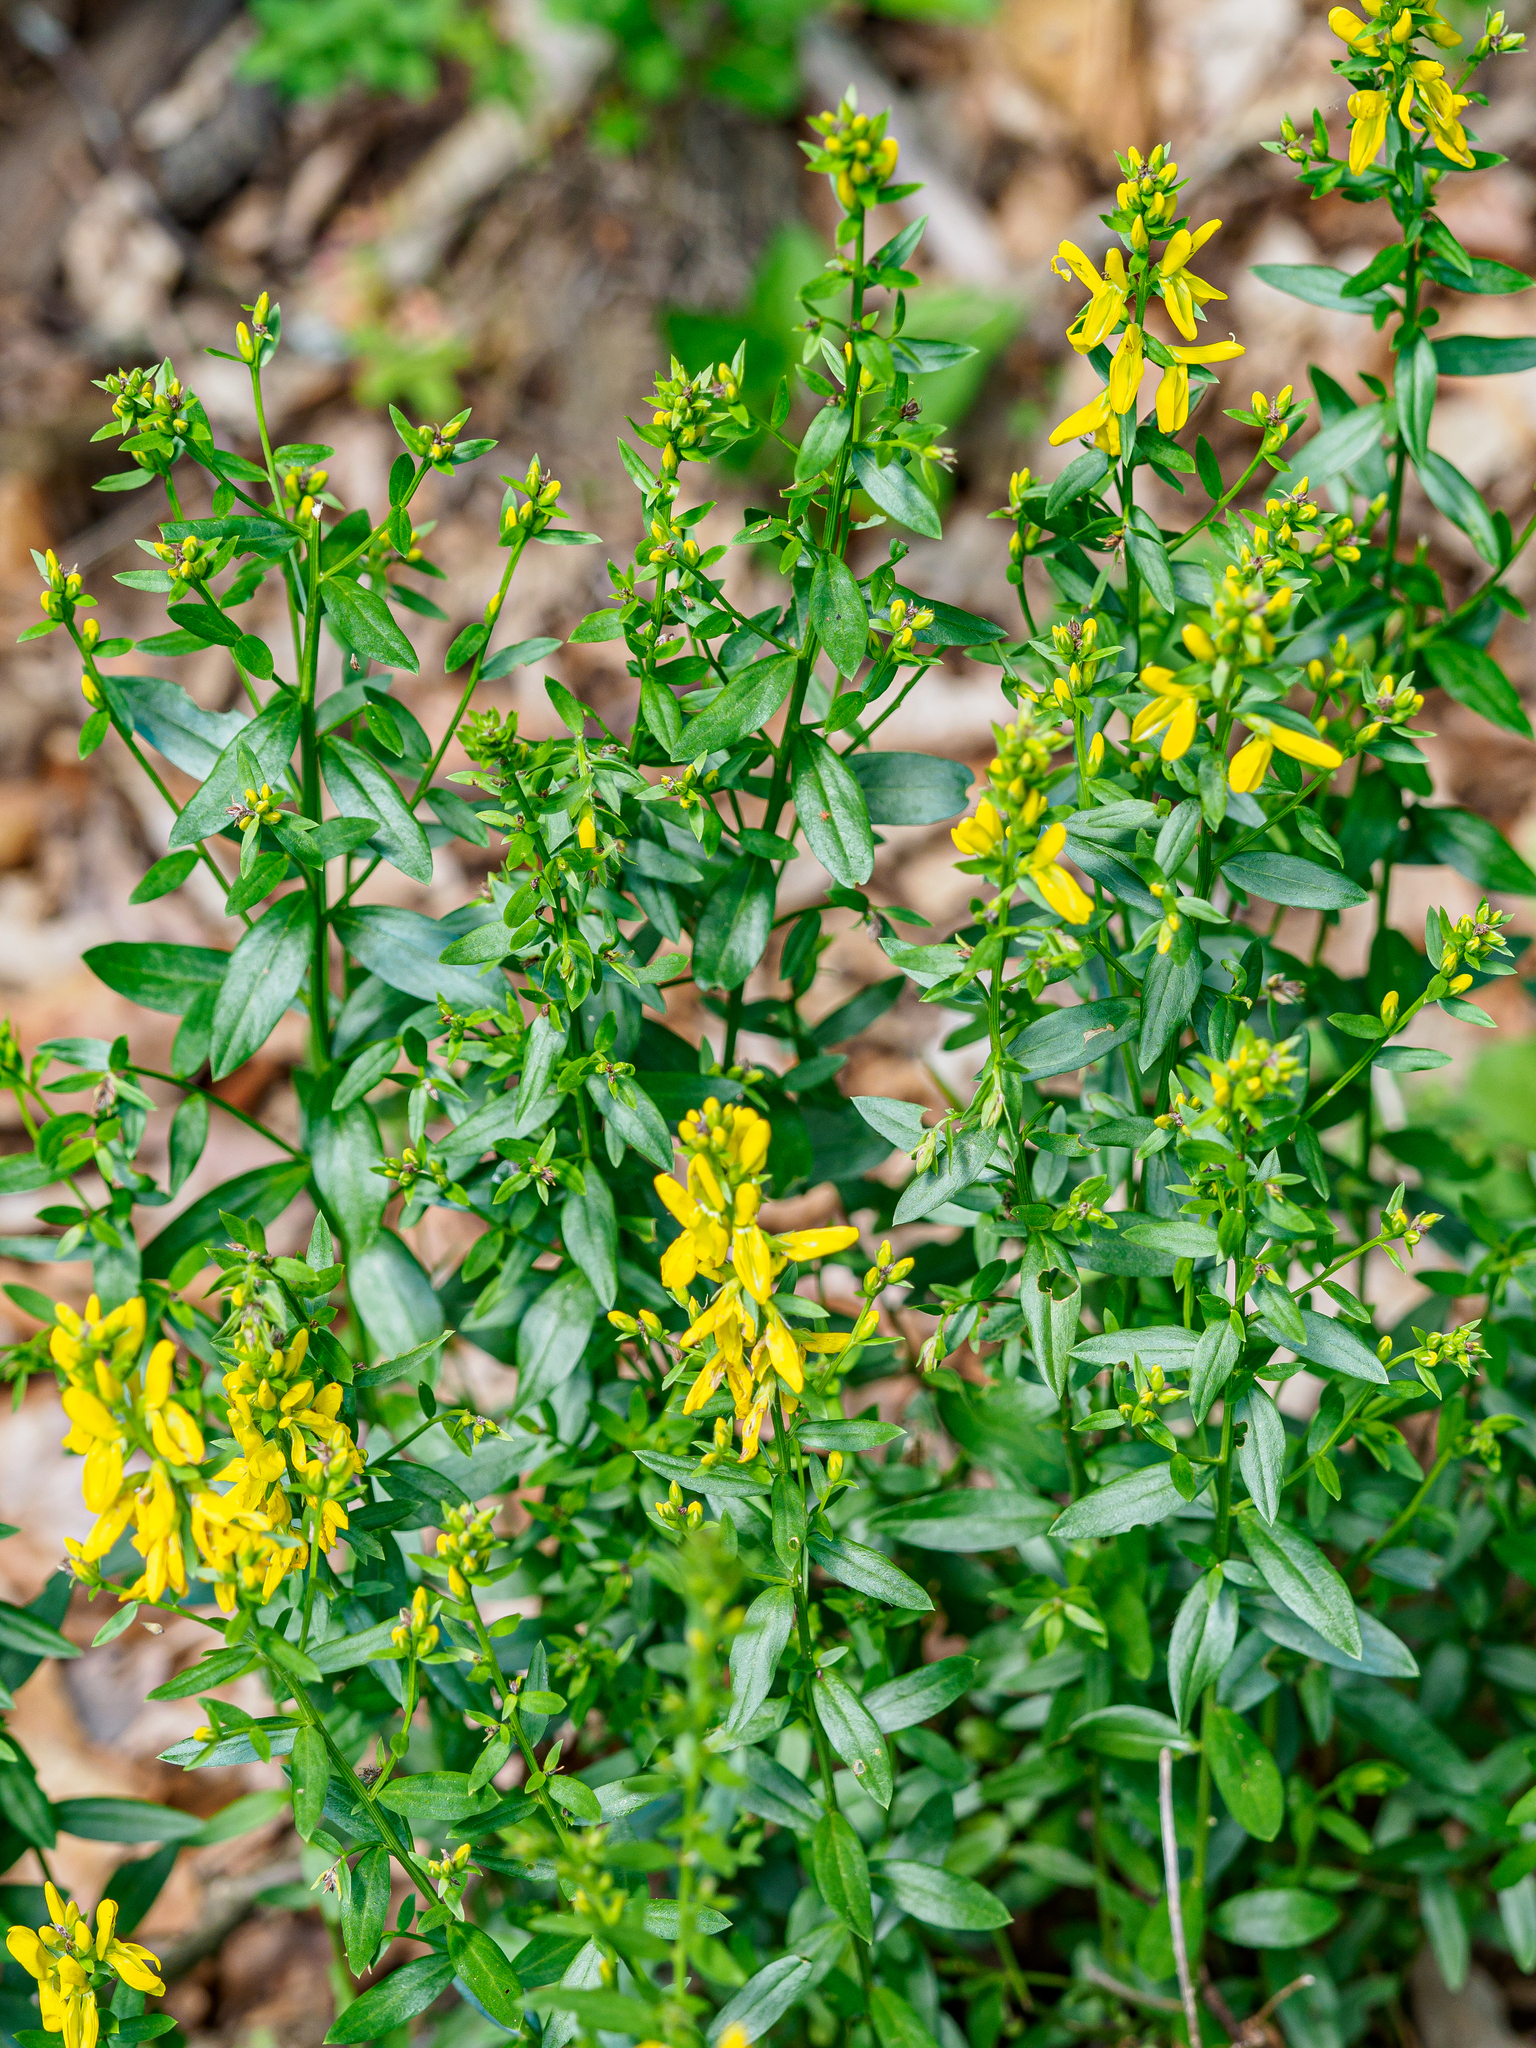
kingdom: Plantae
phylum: Tracheophyta
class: Magnoliopsida
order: Fabales
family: Fabaceae
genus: Genista
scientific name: Genista tinctoria
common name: Dyer's greenweed
